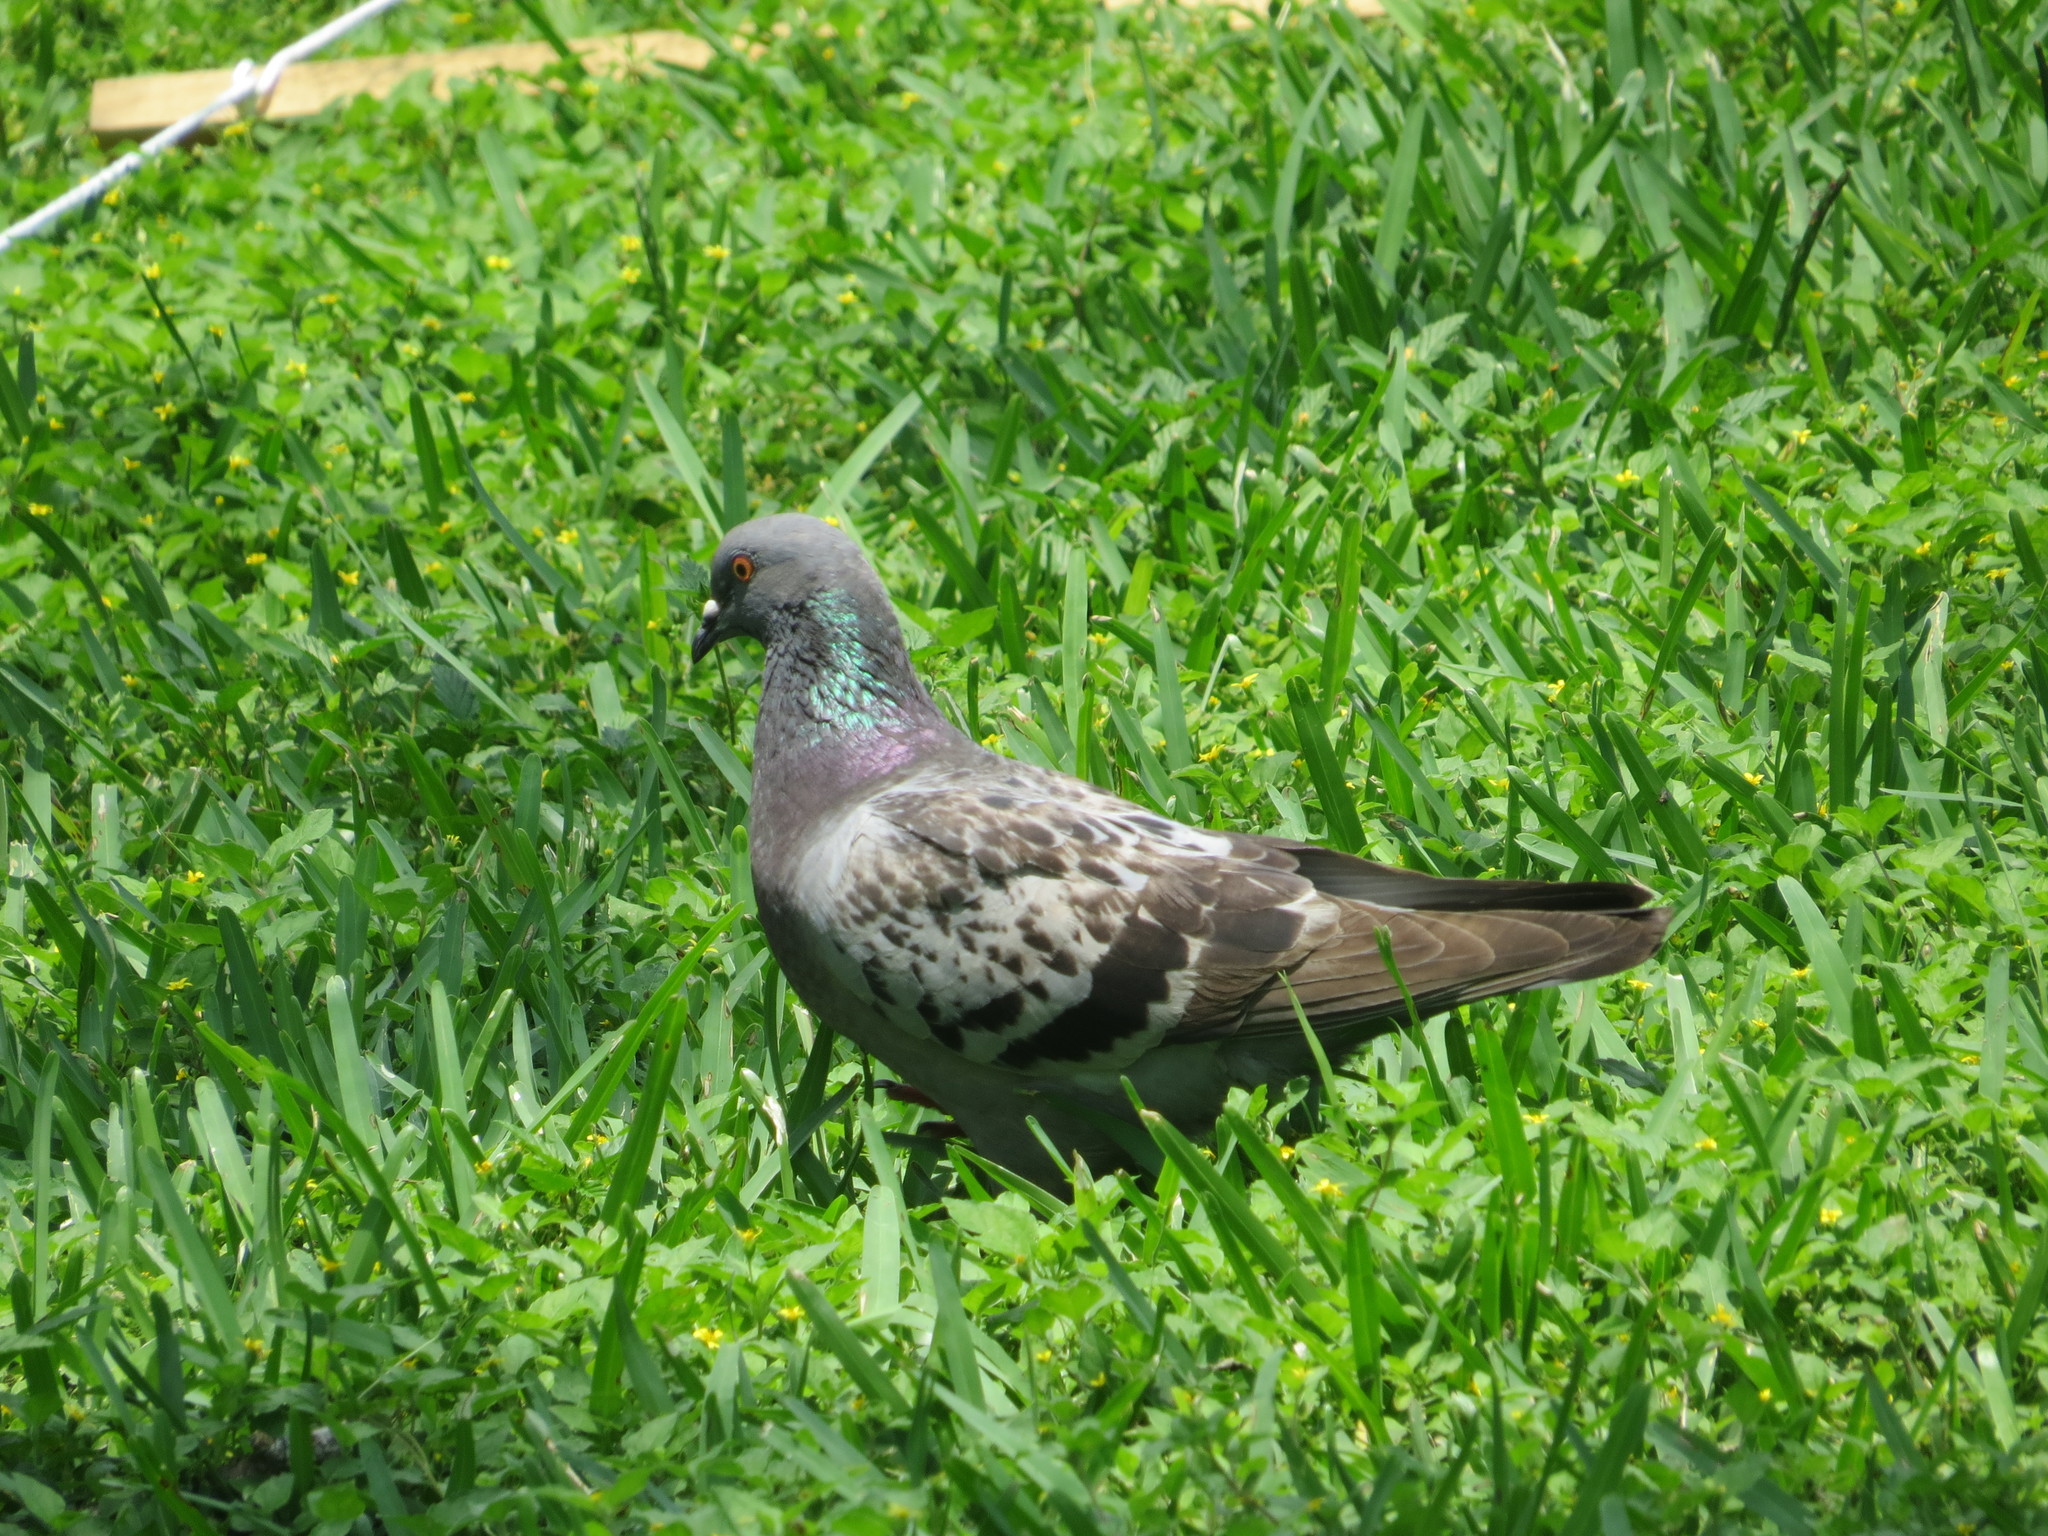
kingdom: Animalia
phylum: Chordata
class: Aves
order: Columbiformes
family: Columbidae
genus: Columba
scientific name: Columba livia
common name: Rock pigeon
